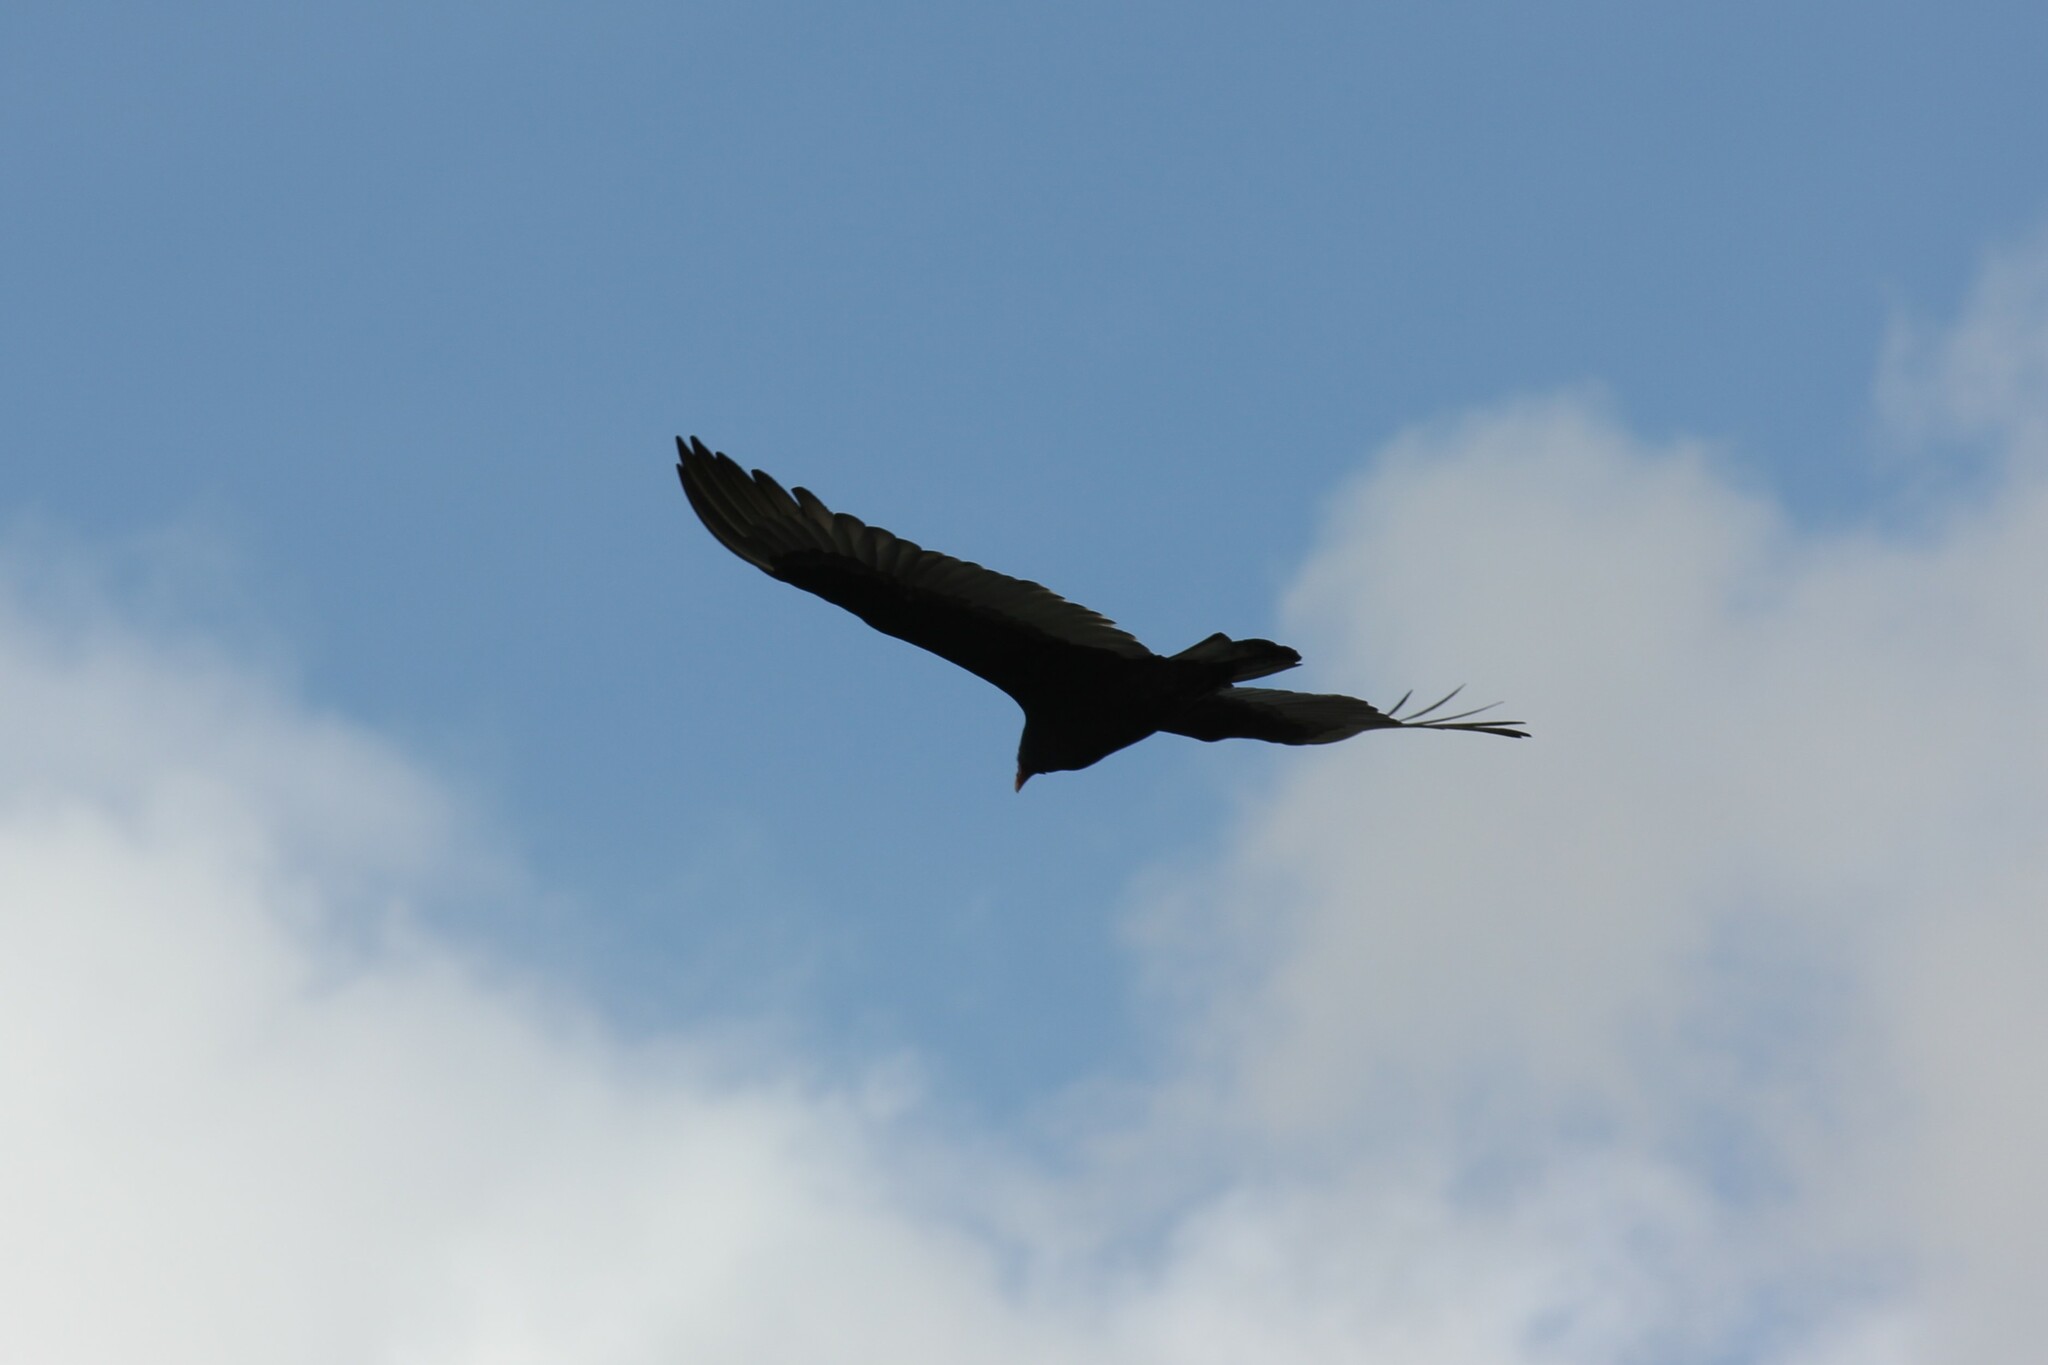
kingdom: Animalia
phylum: Chordata
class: Aves
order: Accipitriformes
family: Cathartidae
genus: Cathartes
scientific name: Cathartes aura
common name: Turkey vulture
